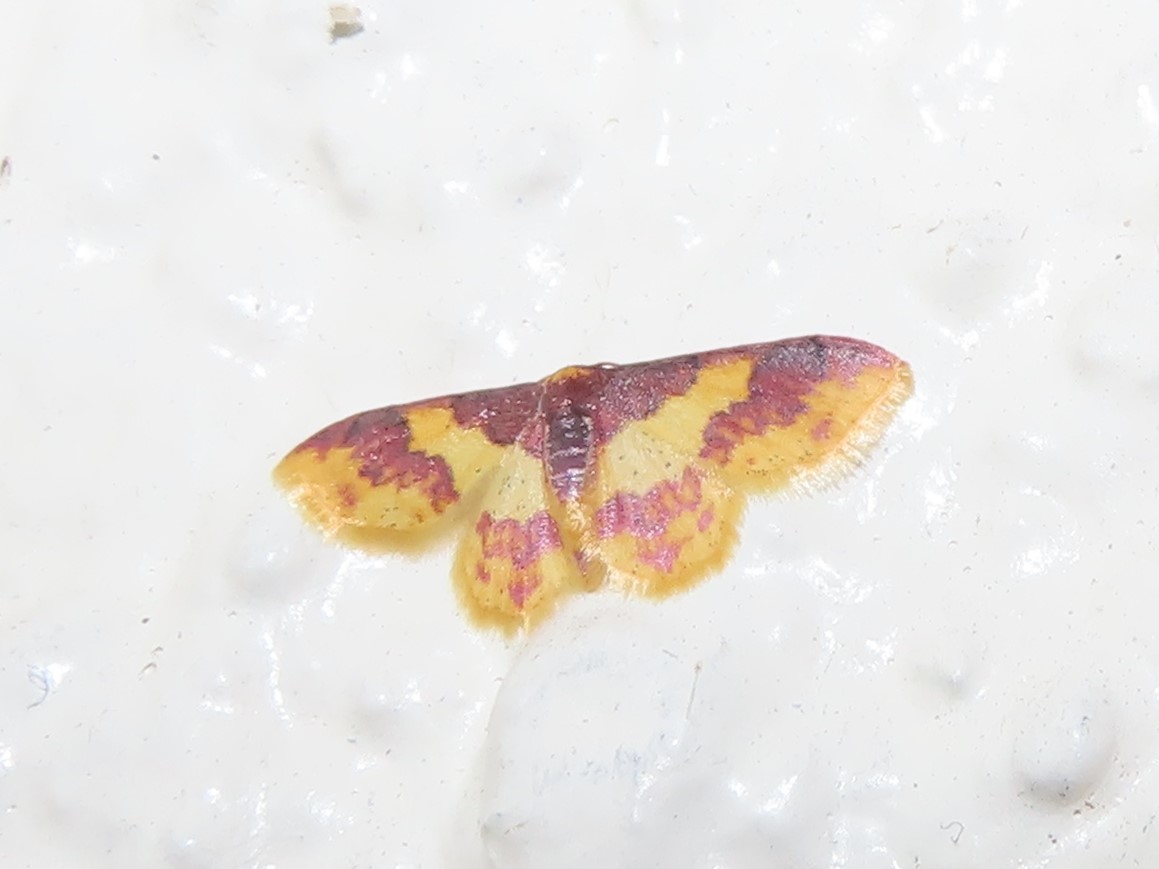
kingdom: Animalia
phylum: Arthropoda
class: Insecta
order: Lepidoptera
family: Geometridae
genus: Lophosis
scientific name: Lophosis labeculata
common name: Stained lophosis moth
